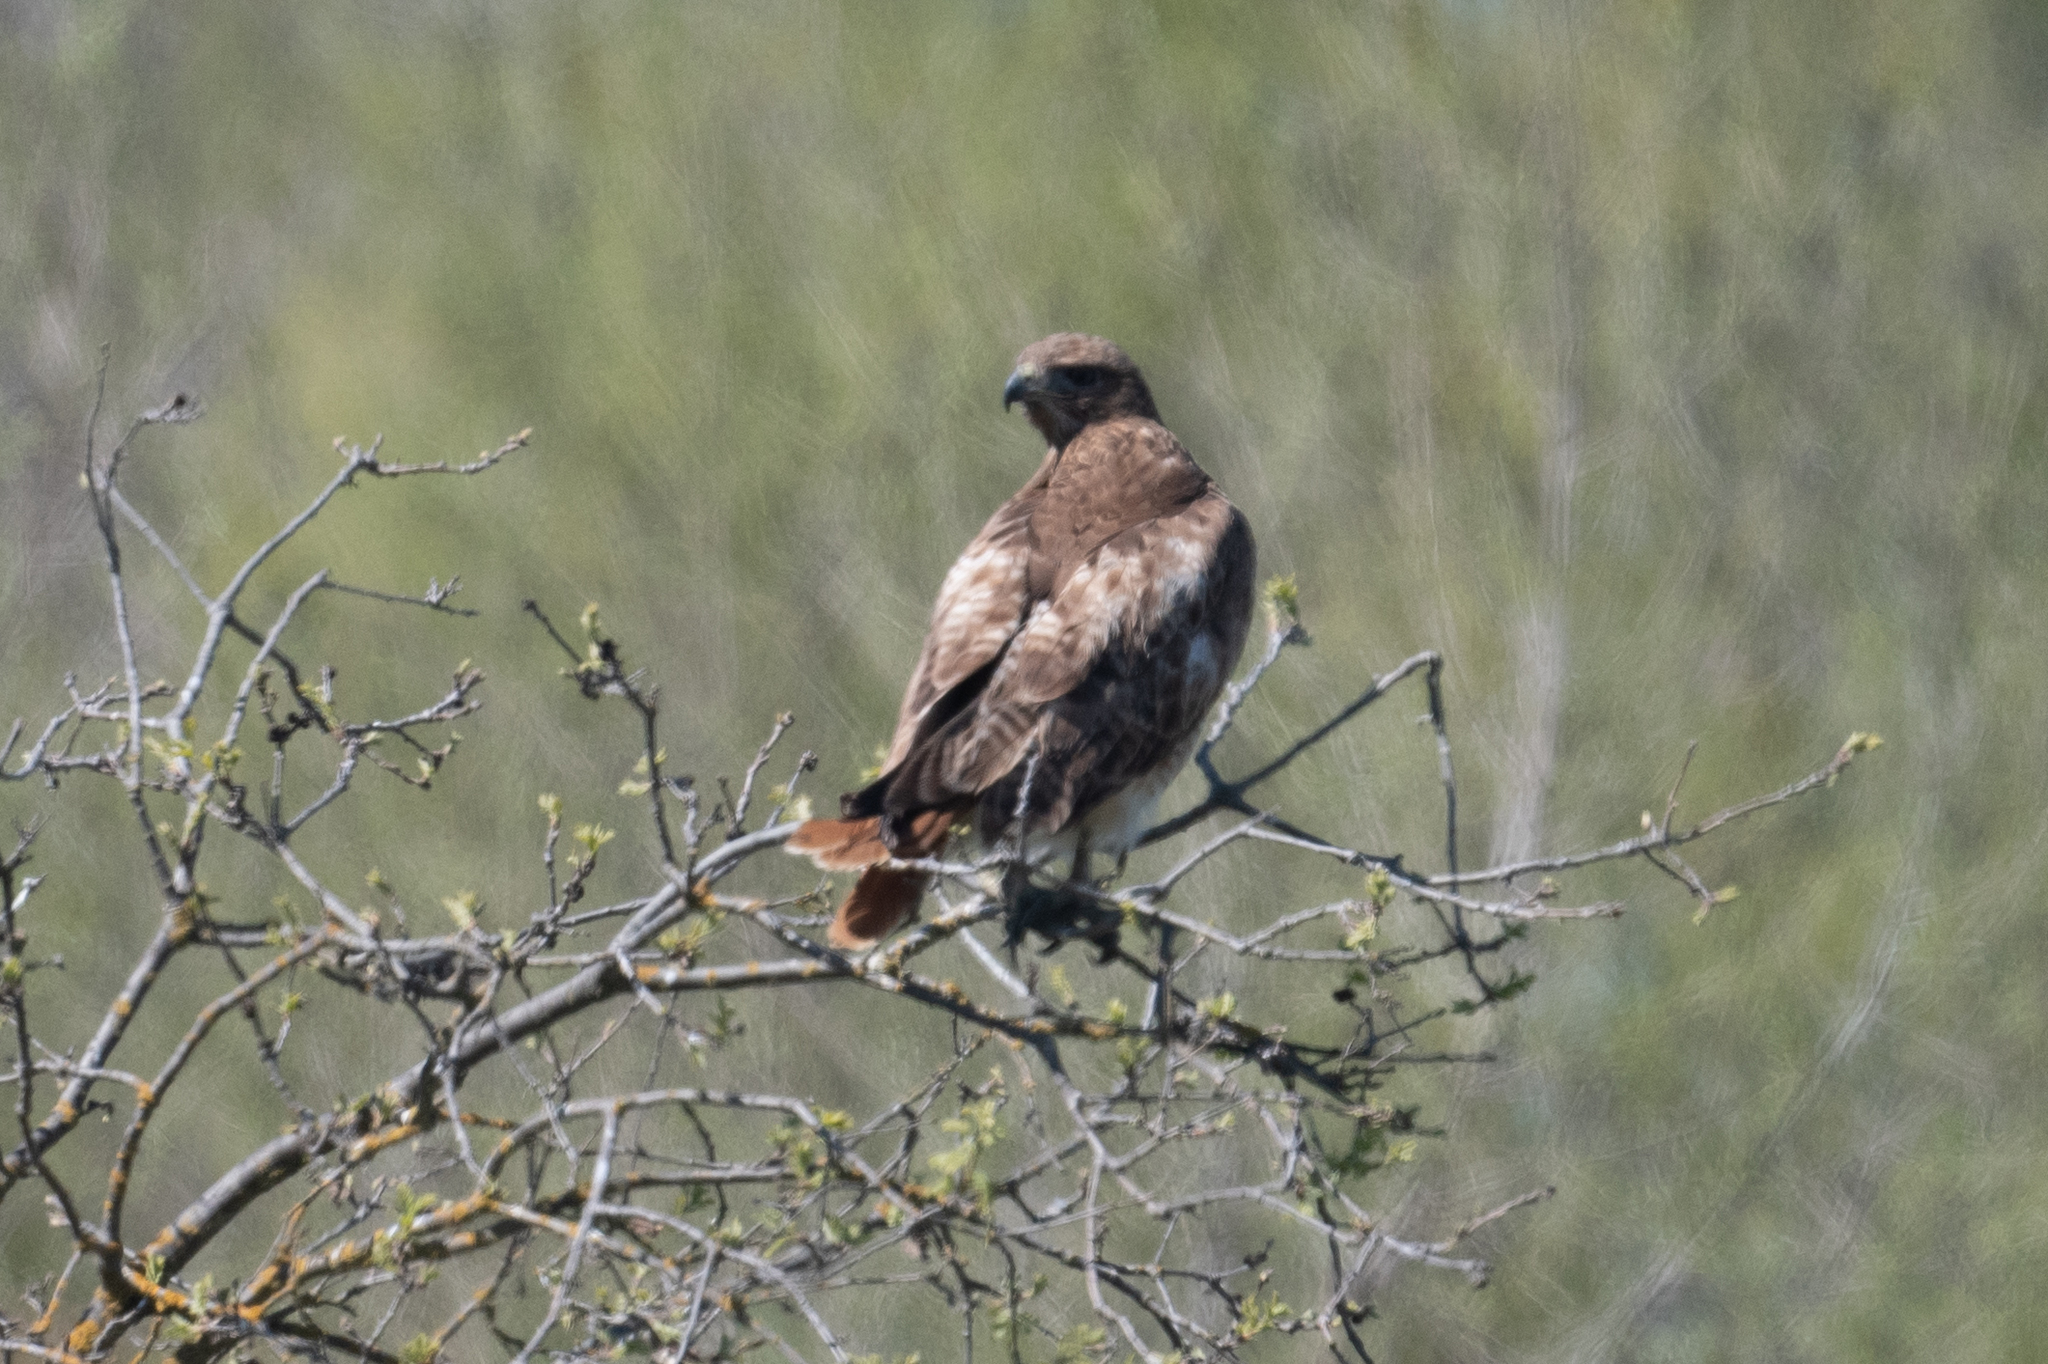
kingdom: Animalia
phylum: Chordata
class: Aves
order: Accipitriformes
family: Accipitridae
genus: Buteo
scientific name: Buteo jamaicensis
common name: Red-tailed hawk
